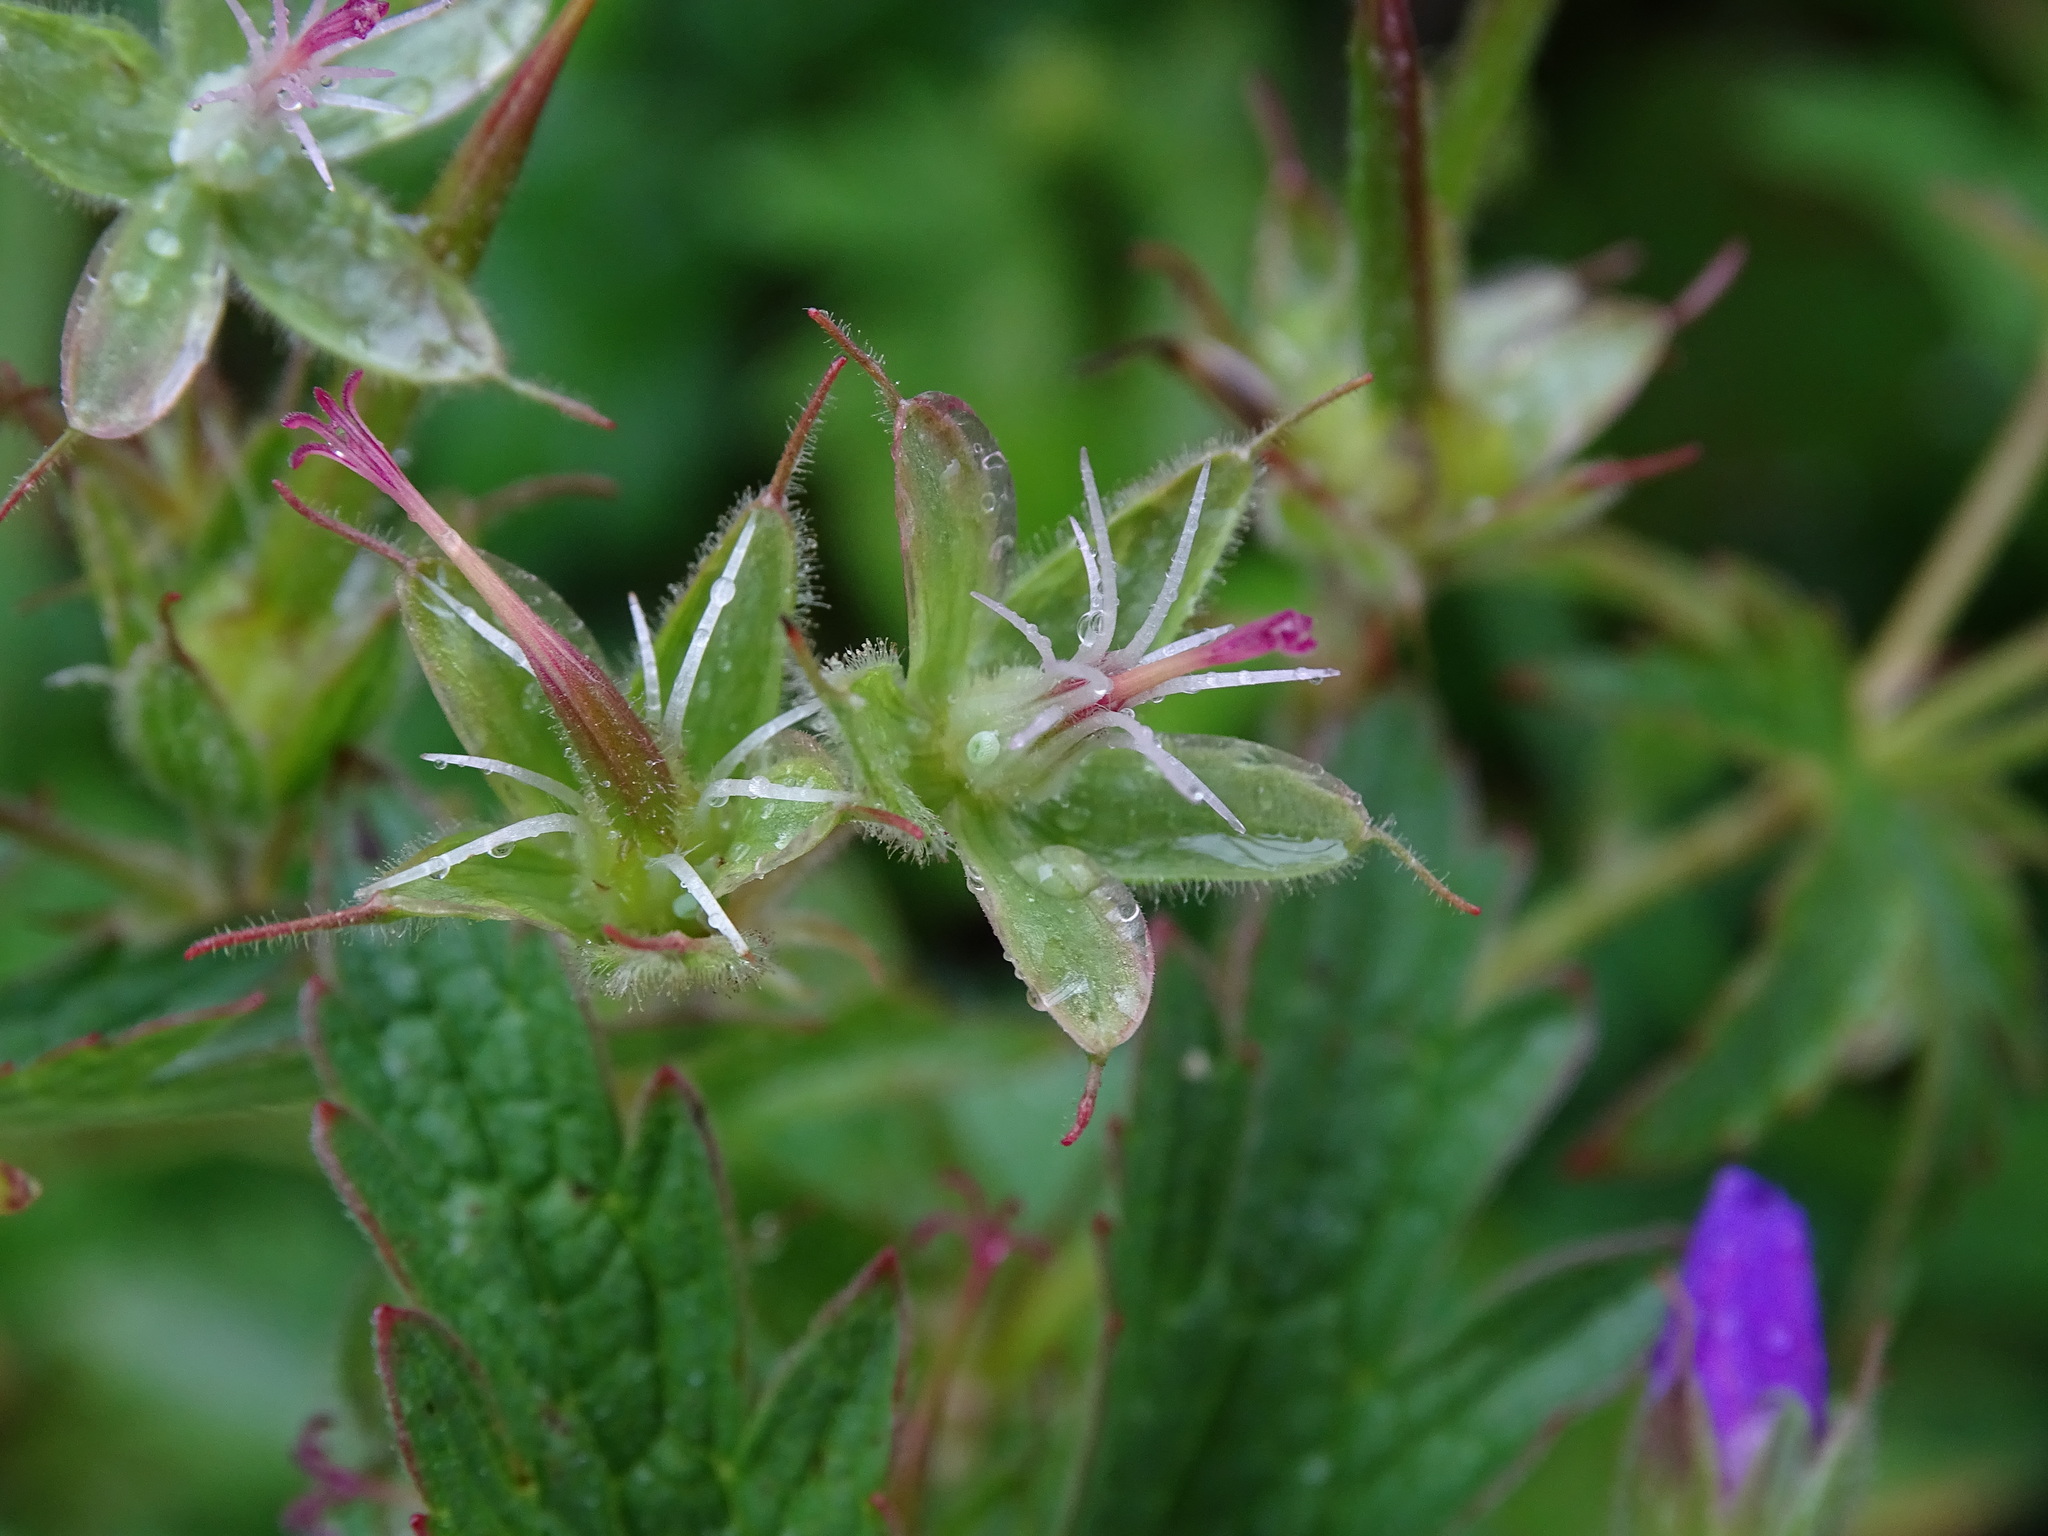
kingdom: Animalia
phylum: Arthropoda
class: Insecta
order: Lepidoptera
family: Lycaenidae
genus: Eumedonia
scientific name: Eumedonia eumedon
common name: Geranium argus
